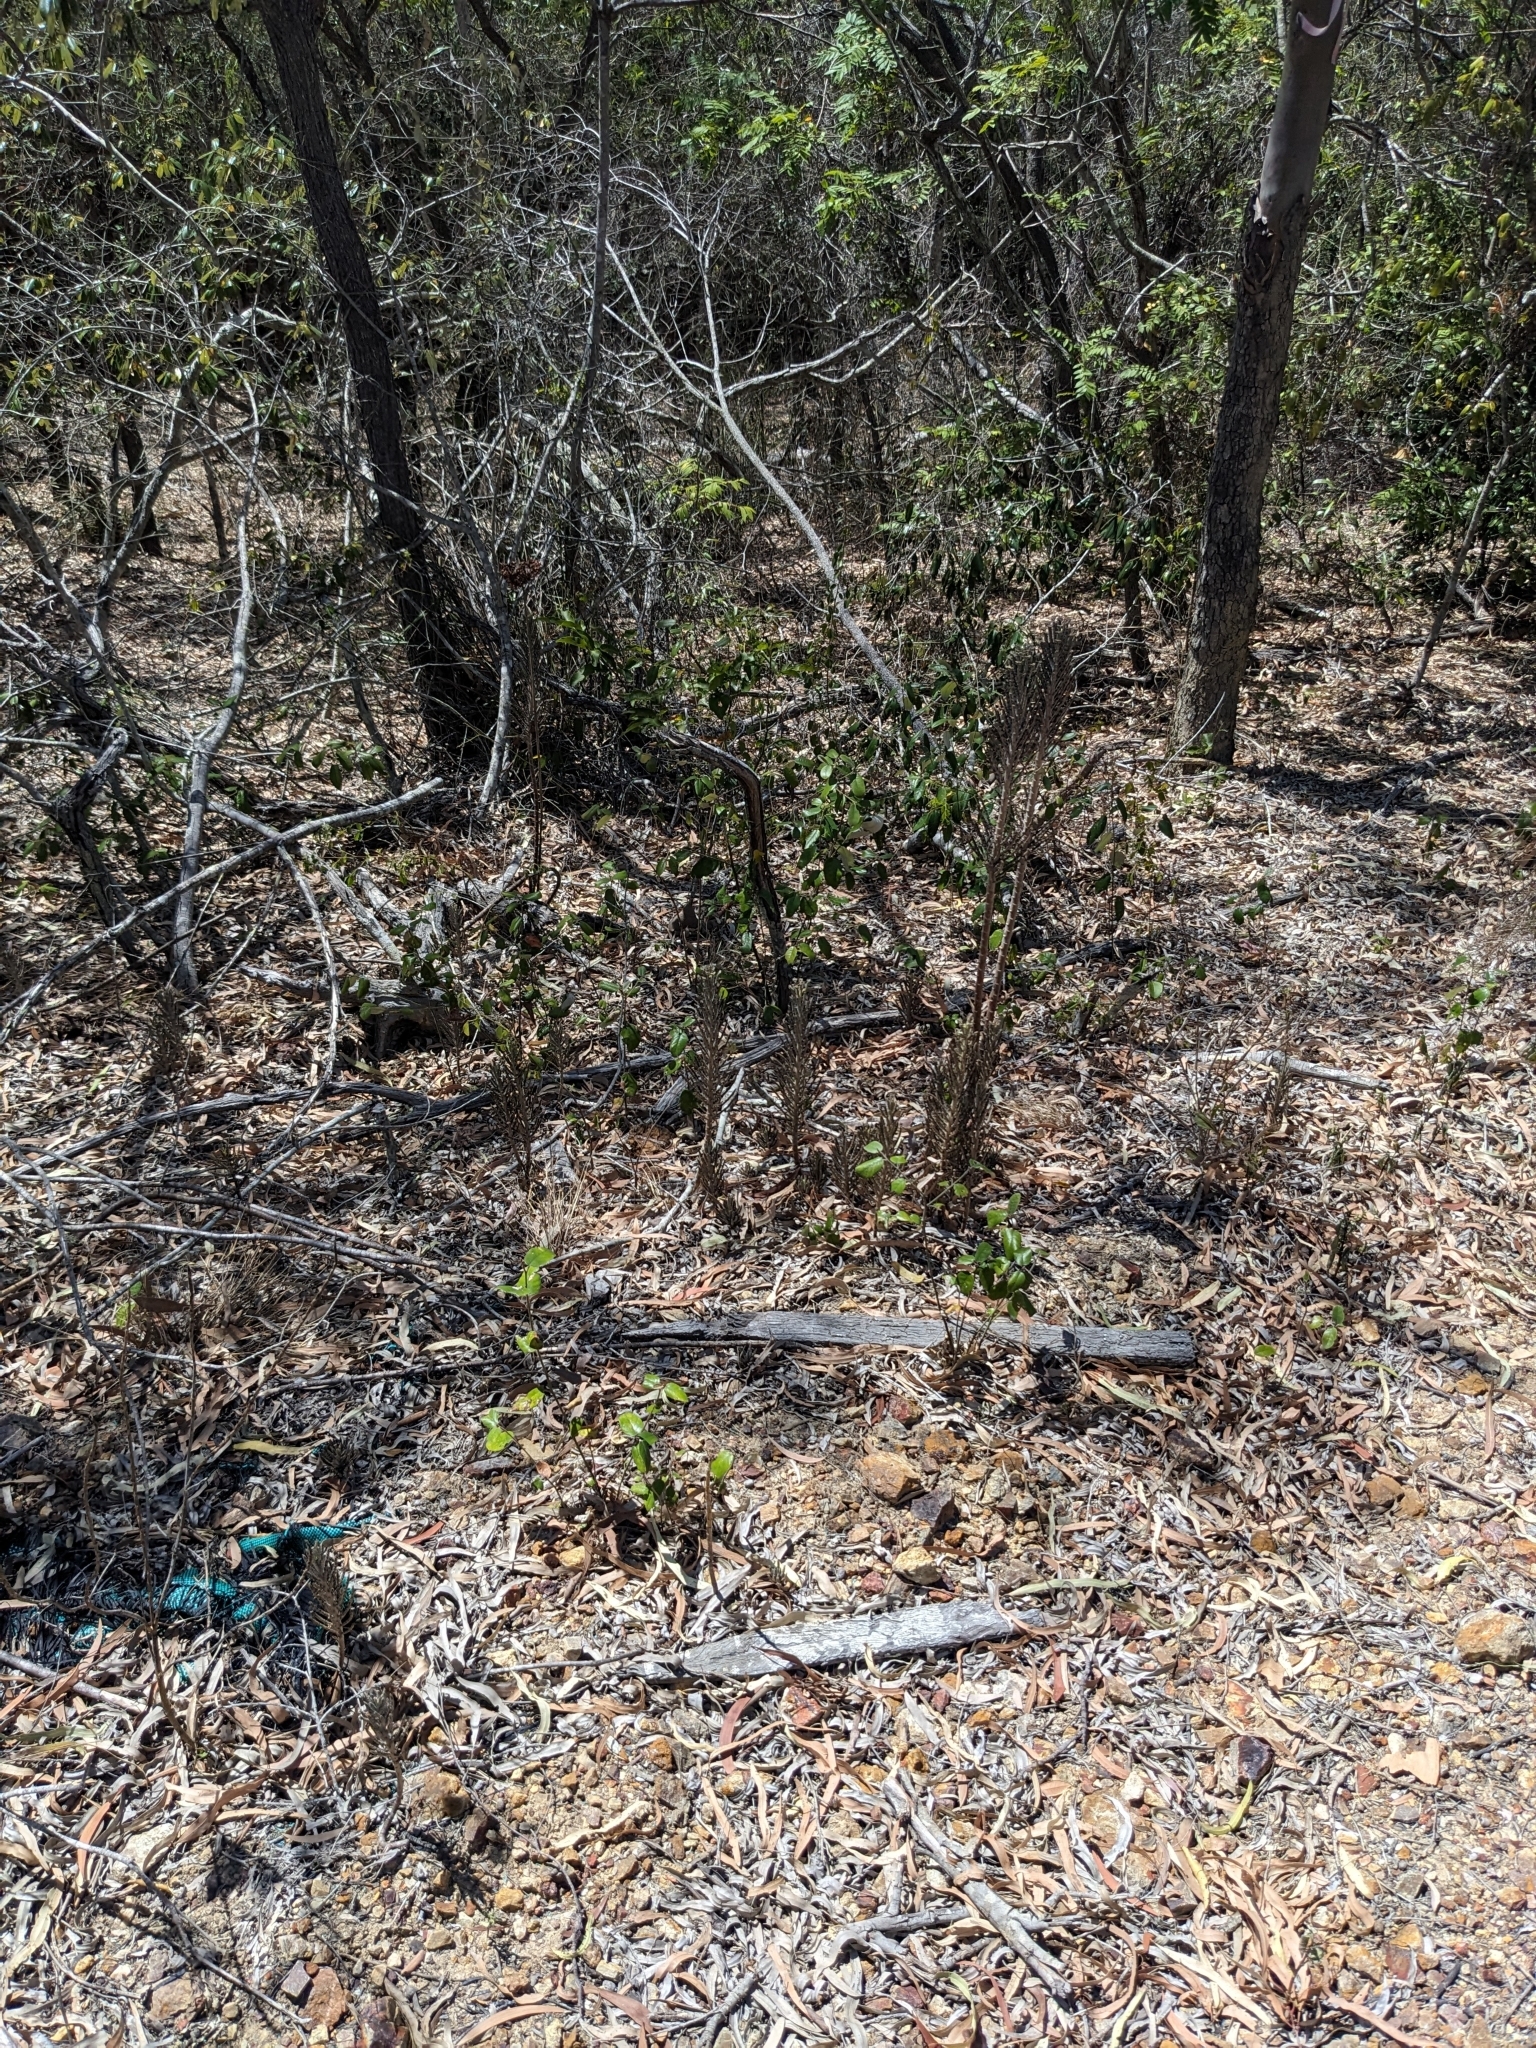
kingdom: Plantae
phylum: Tracheophyta
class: Magnoliopsida
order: Saxifragales
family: Crassulaceae
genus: Kalanchoe
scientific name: Kalanchoe delagoensis
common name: Chandelier plant
